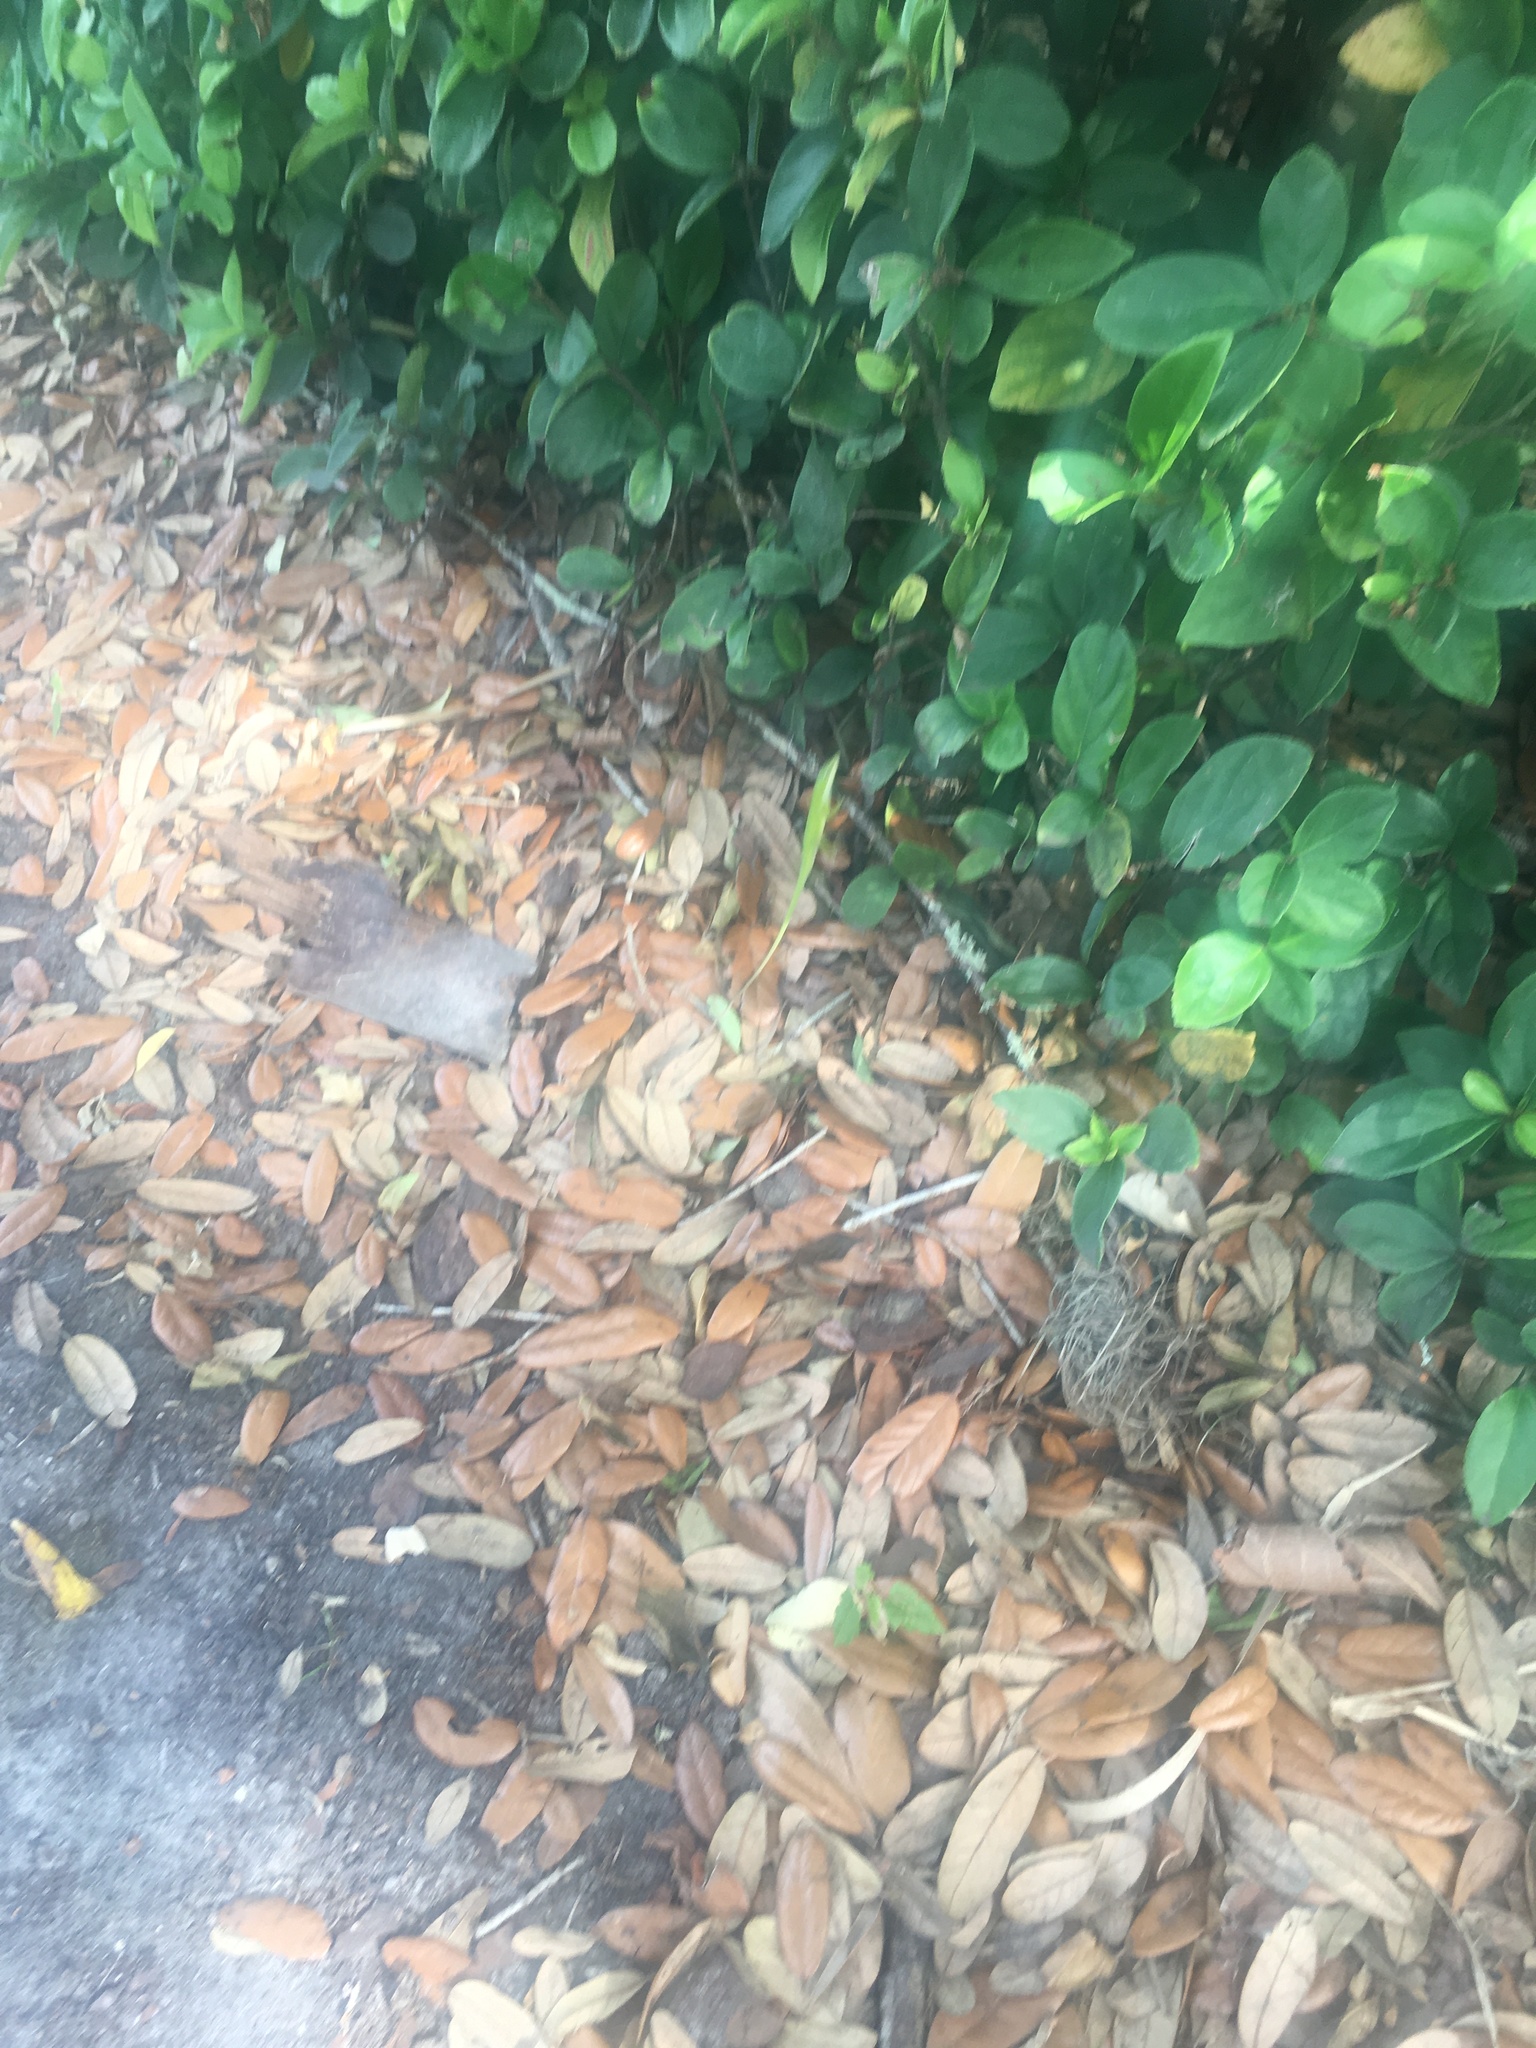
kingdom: Animalia
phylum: Chordata
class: Squamata
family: Dactyloidae
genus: Anolis
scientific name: Anolis carolinensis
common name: Green anole
